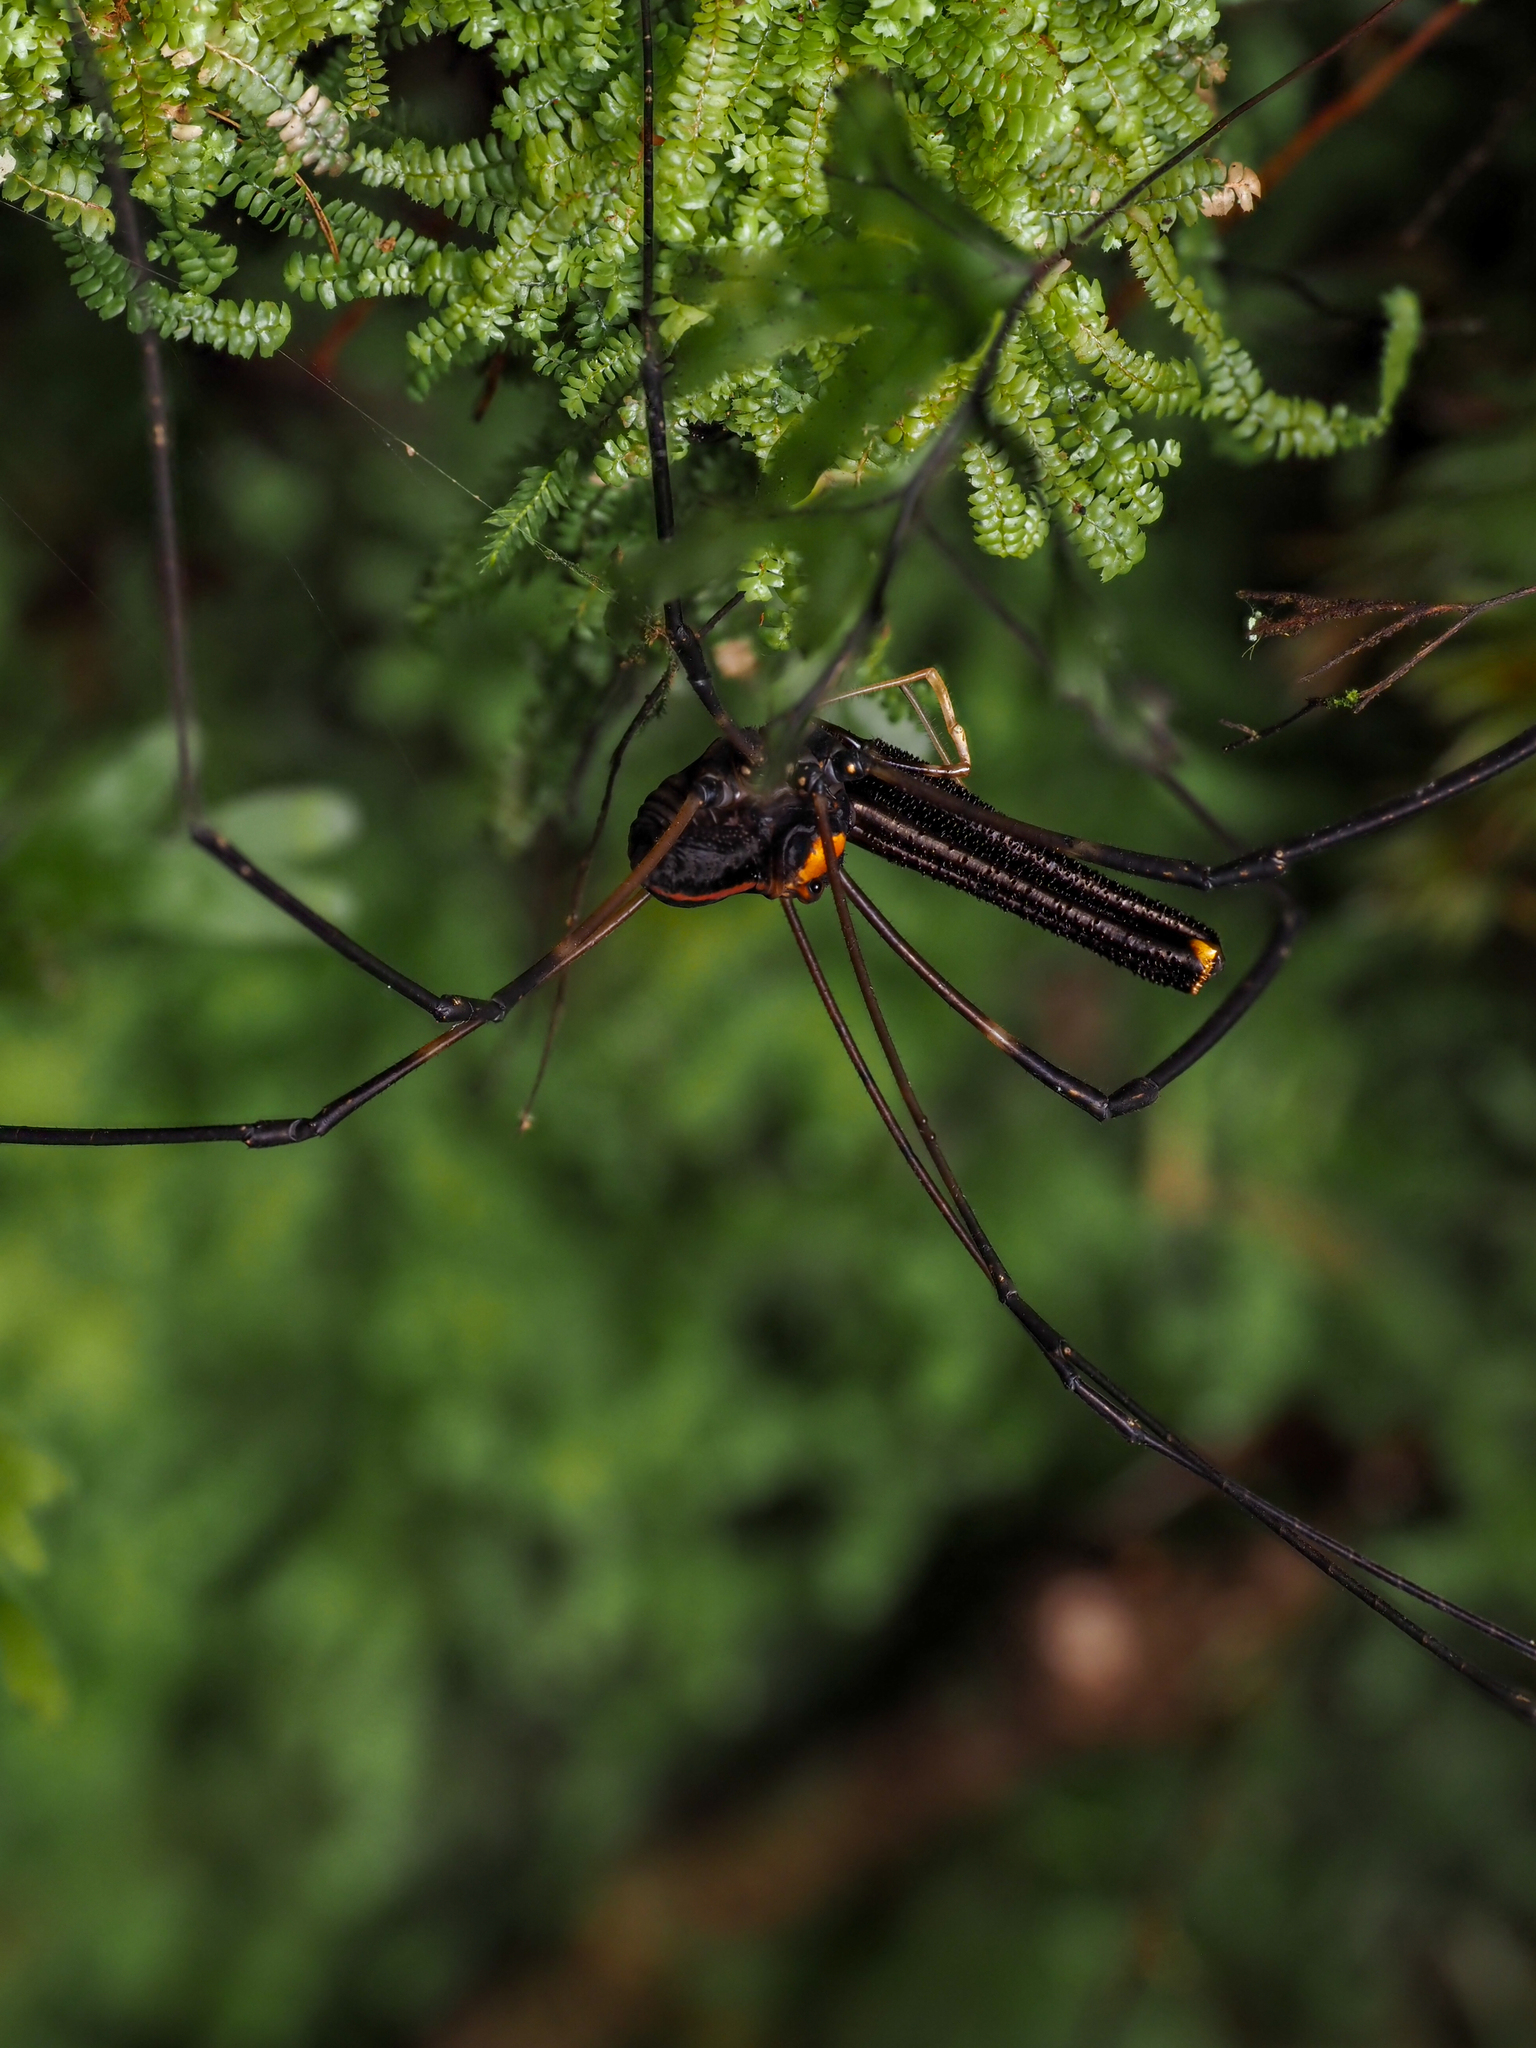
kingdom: Animalia
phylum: Arthropoda
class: Arachnida
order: Opiliones
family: Neopilionidae
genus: Forsteropsalis
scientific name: Forsteropsalis pureora
